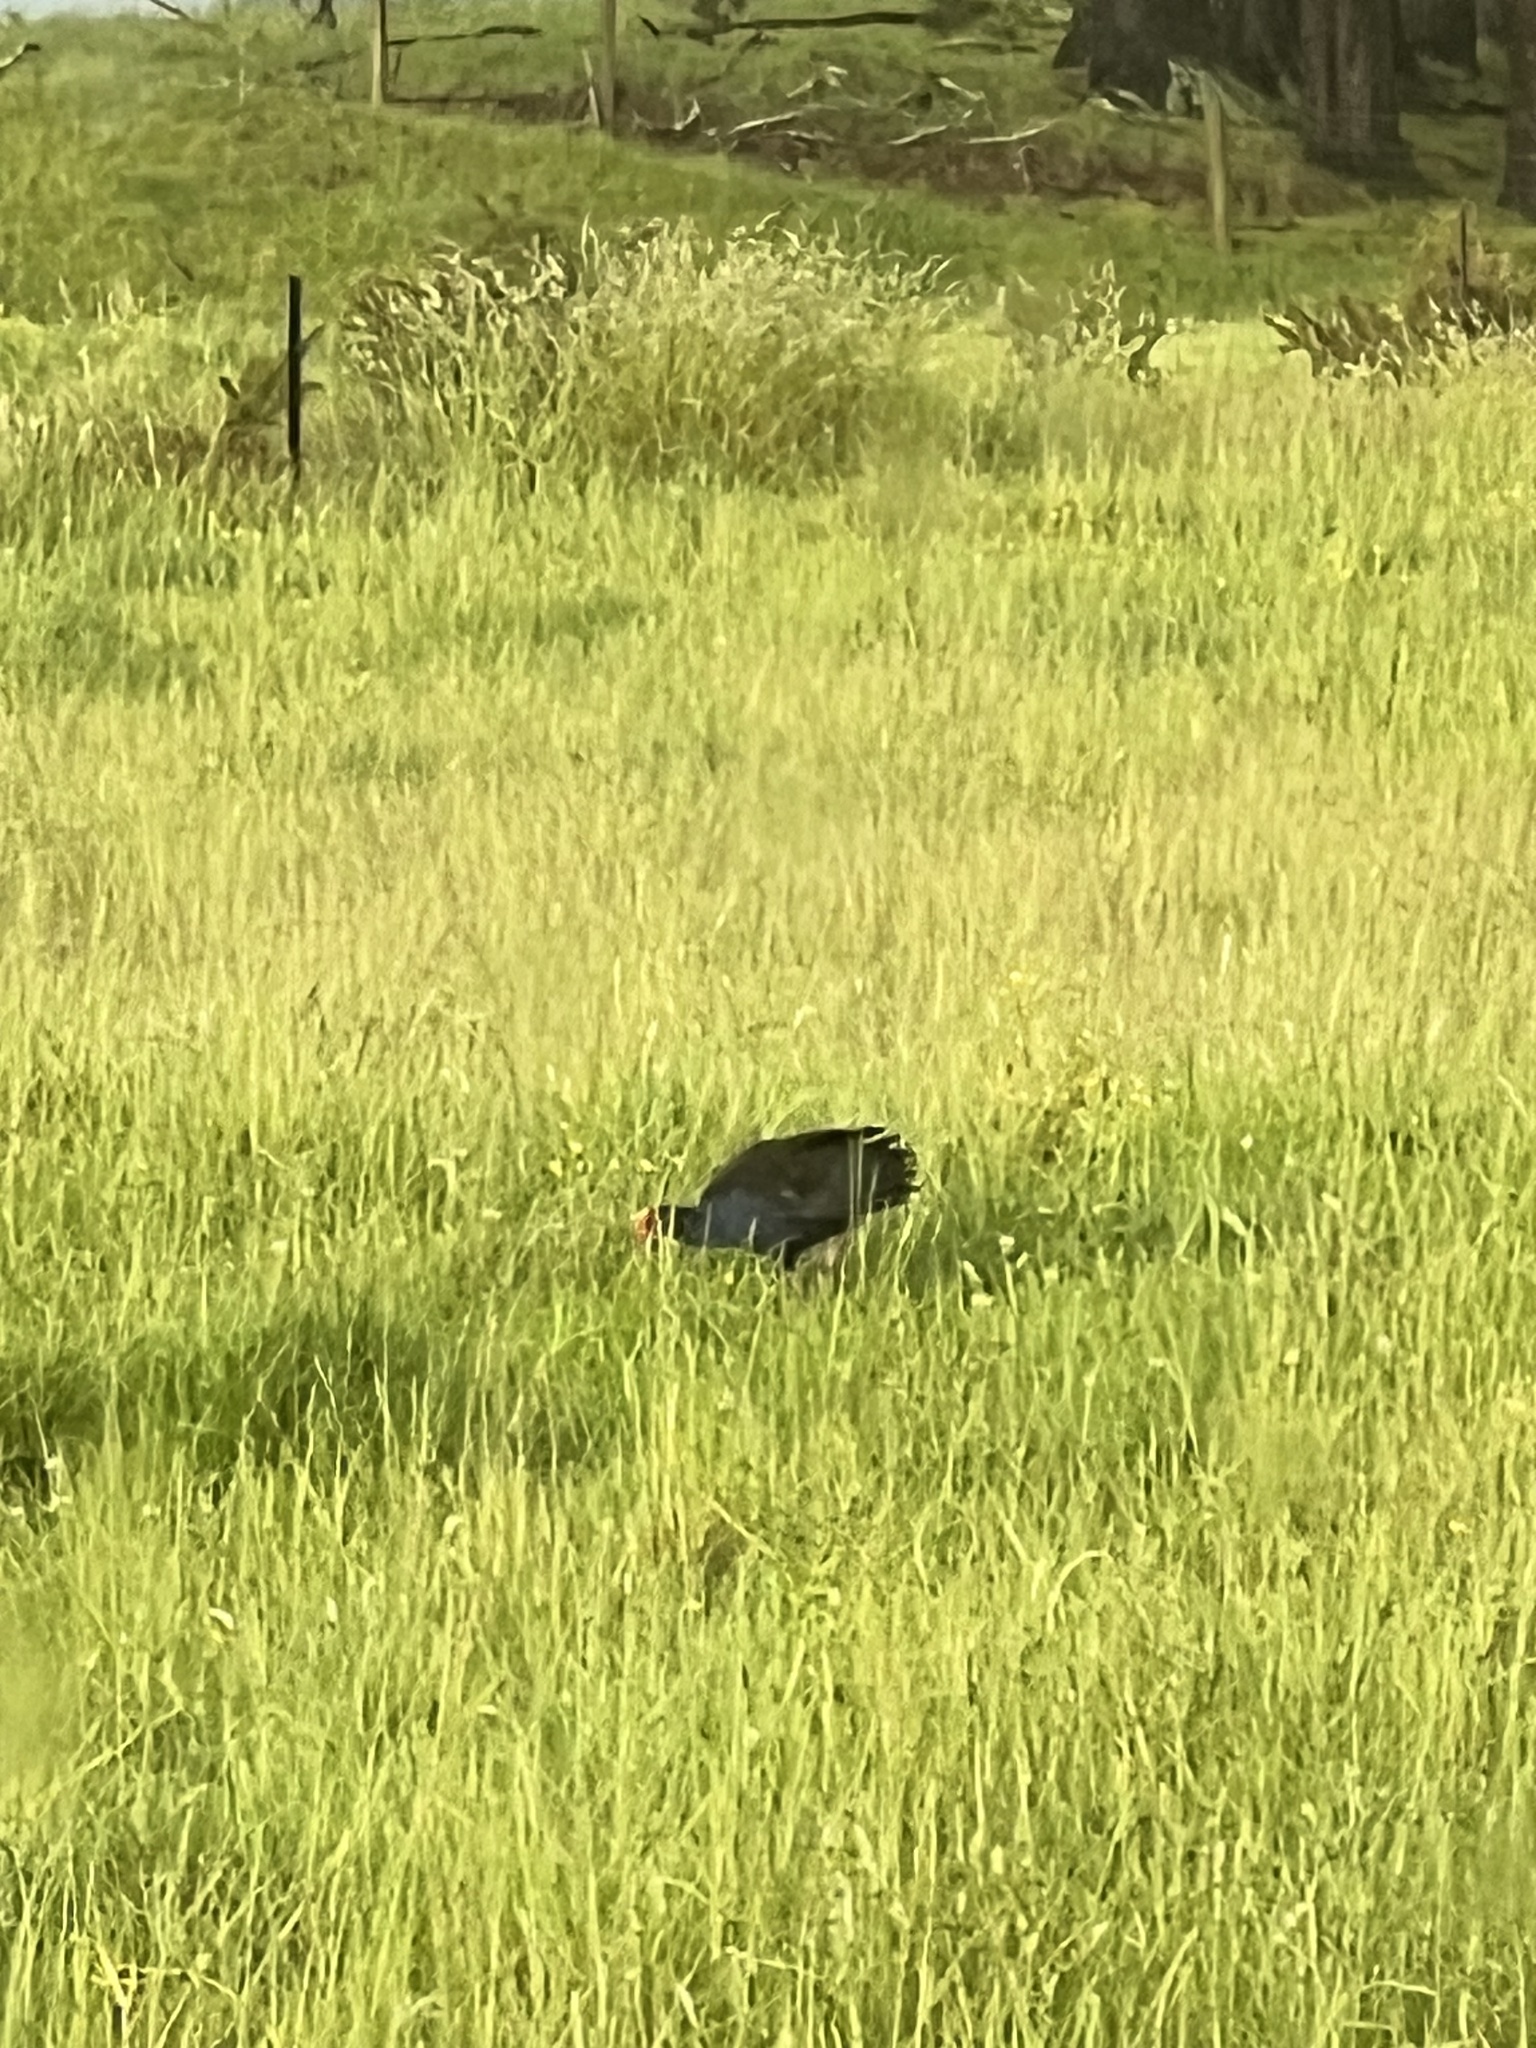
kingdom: Animalia
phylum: Chordata
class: Aves
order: Gruiformes
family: Rallidae
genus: Porphyrio
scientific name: Porphyrio melanotus
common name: Australasian swamphen
